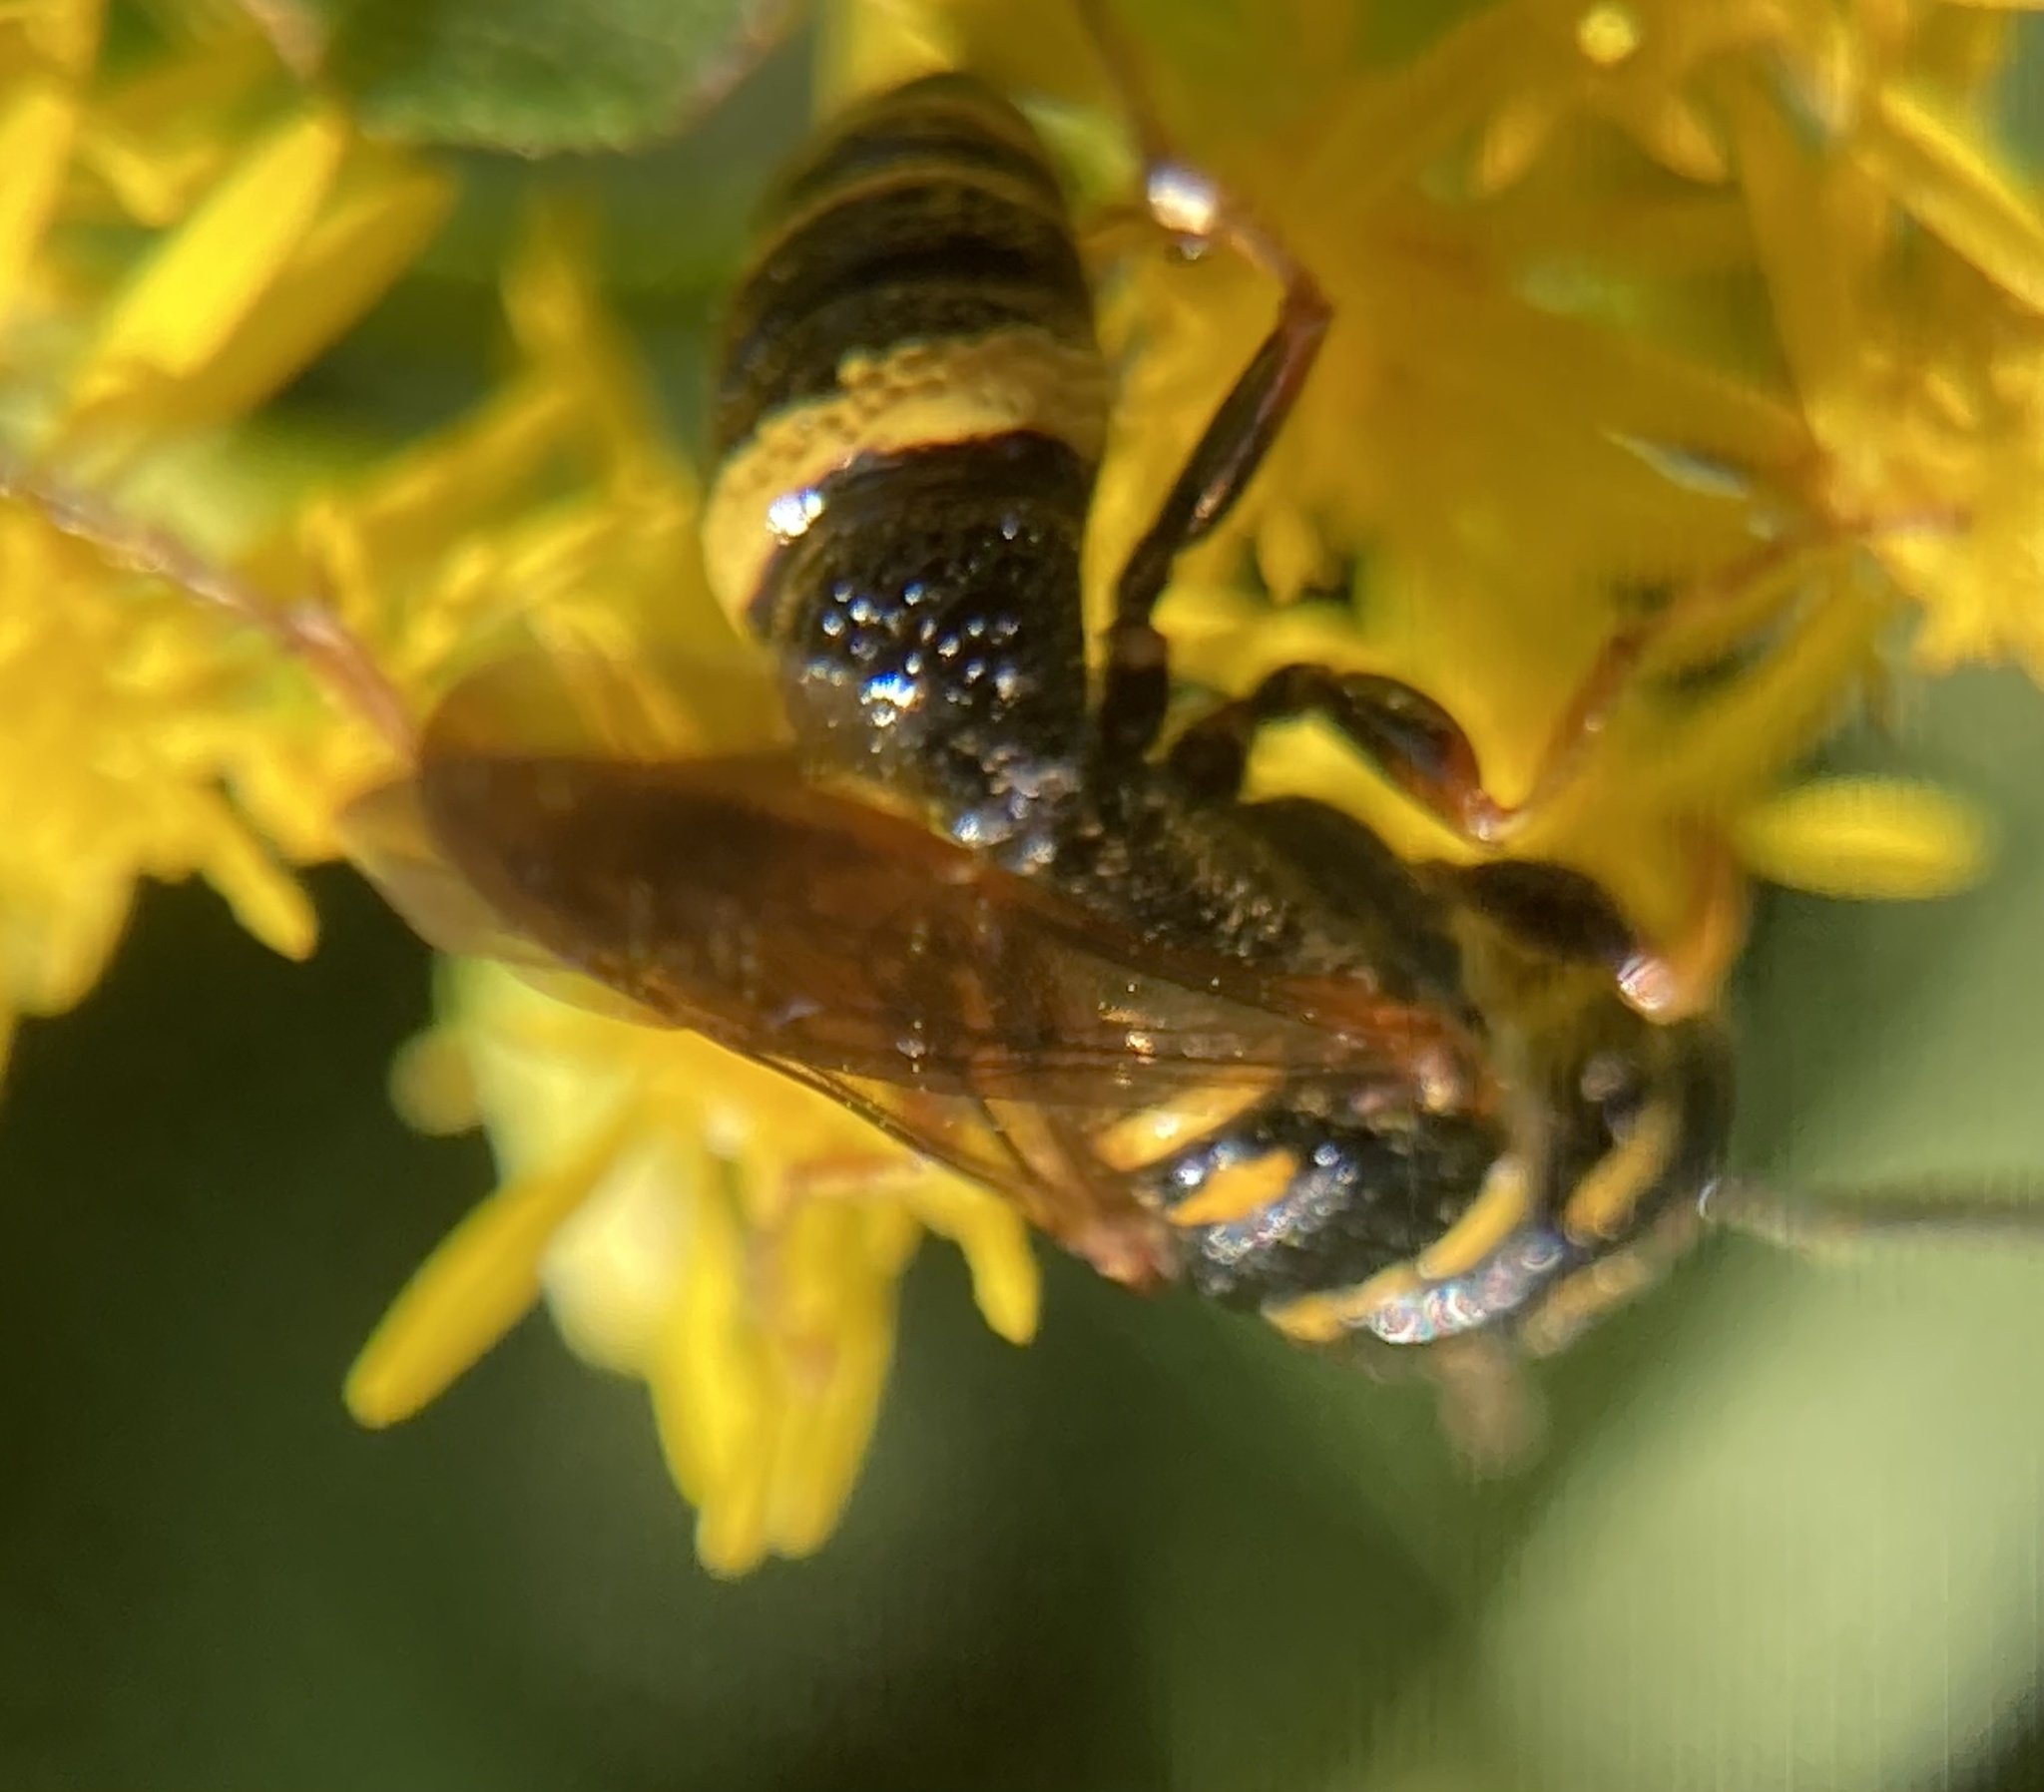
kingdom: Animalia
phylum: Arthropoda
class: Insecta
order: Hymenoptera
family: Crabronidae
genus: Philanthus
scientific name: Philanthus gibbosus
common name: Humped beewolf
